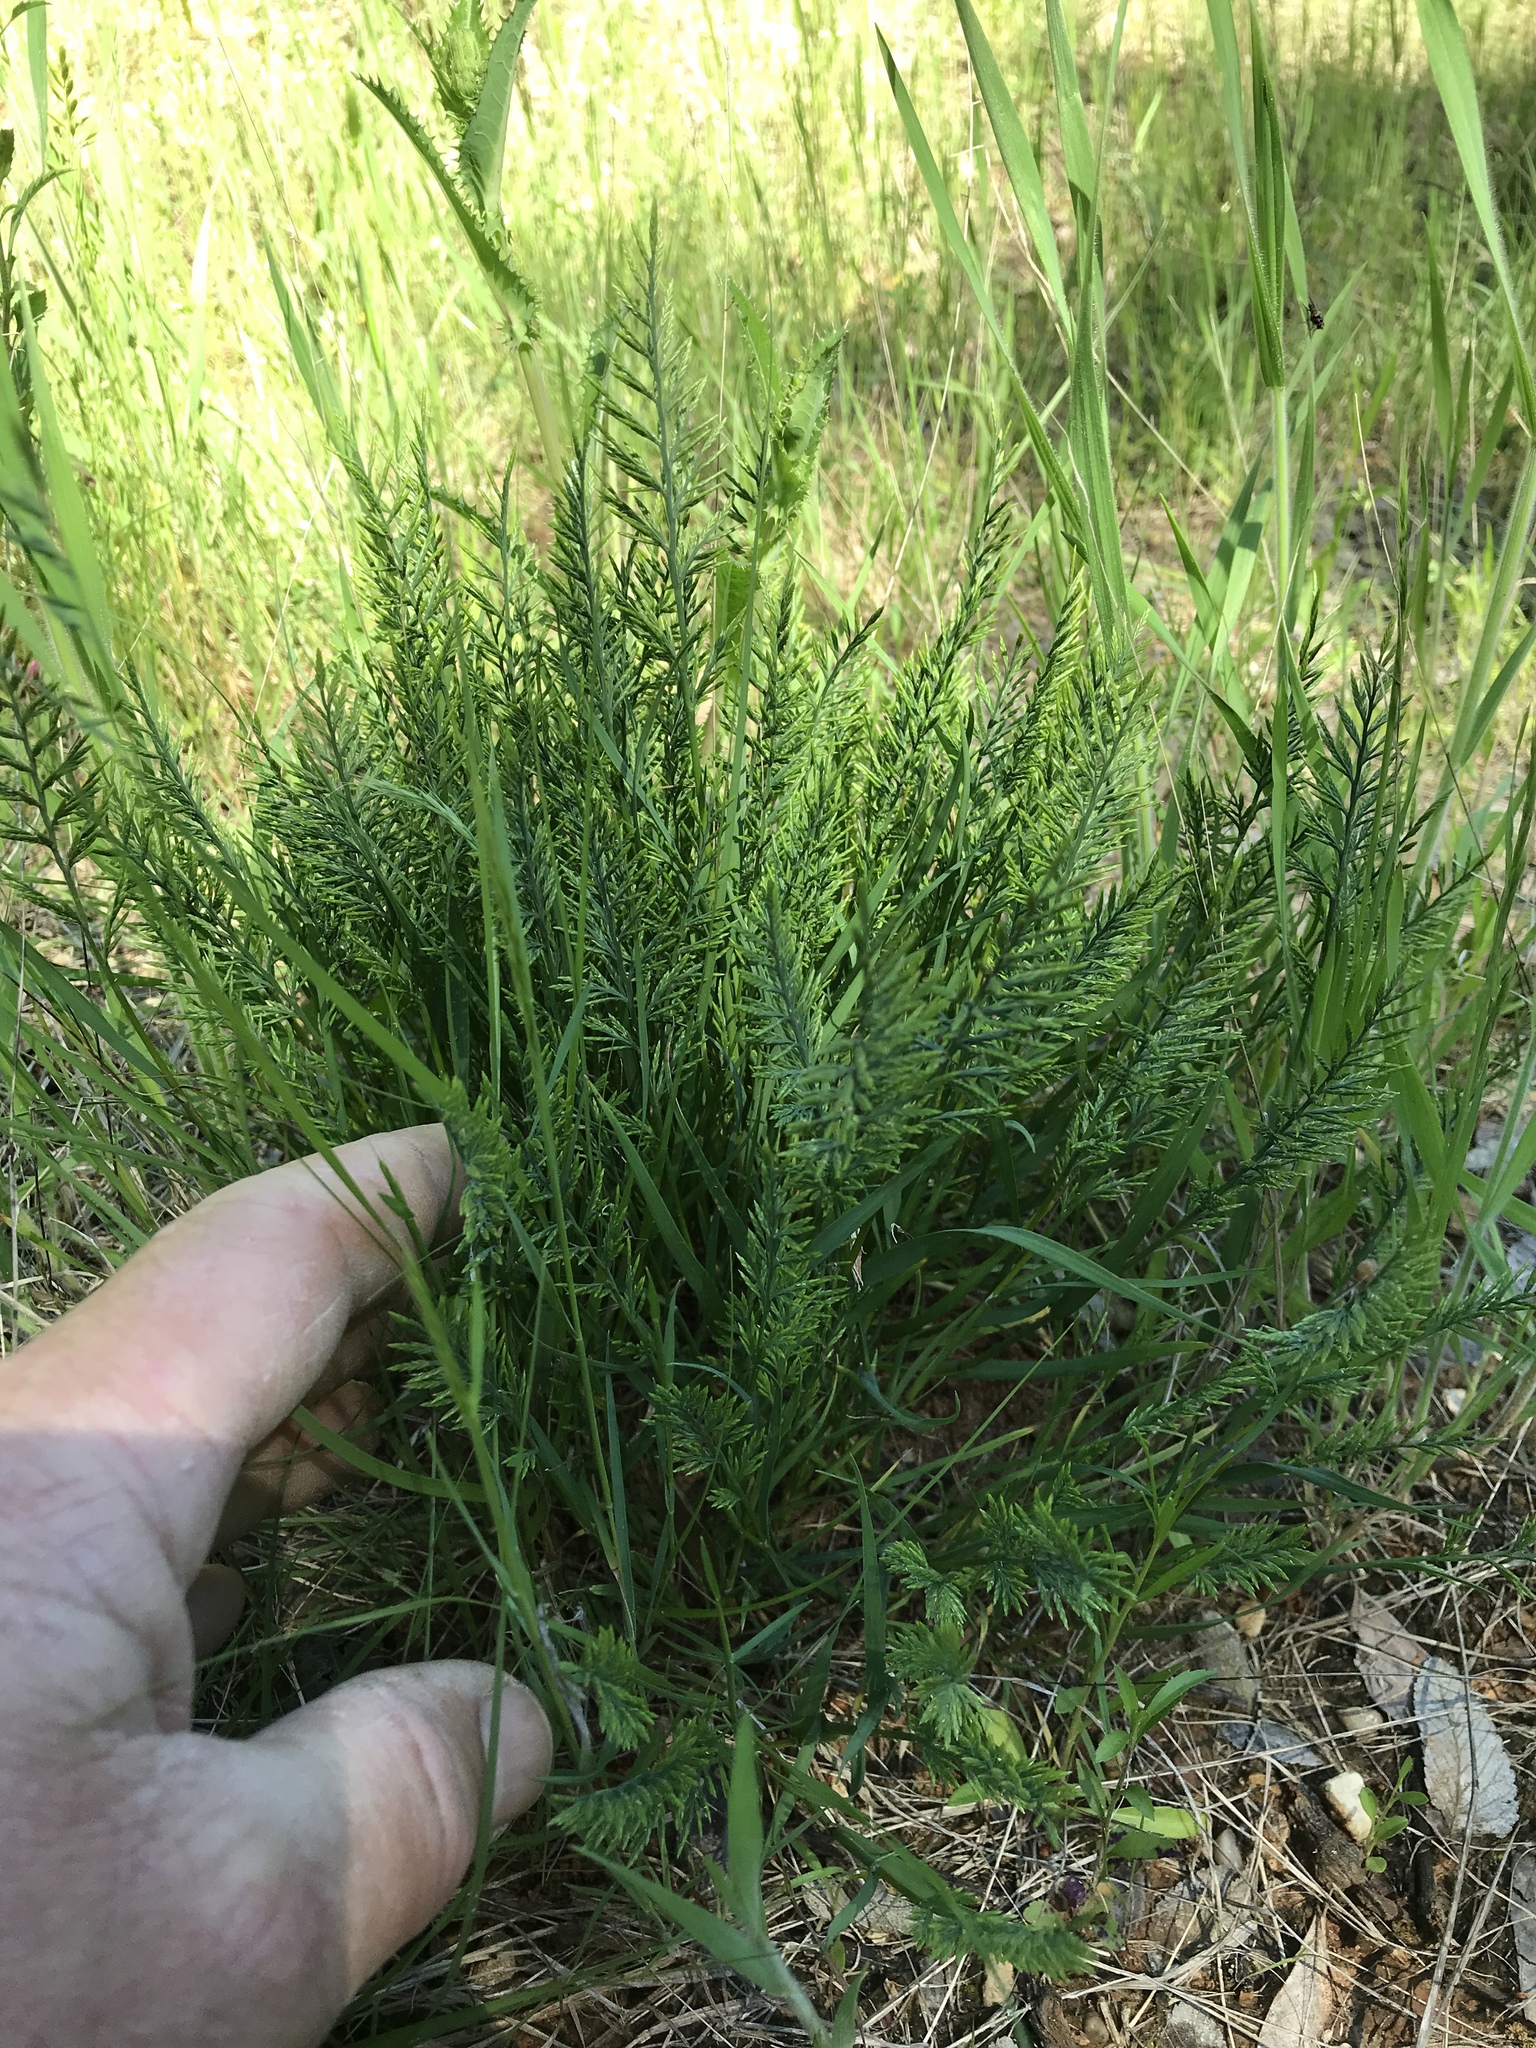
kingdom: Plantae
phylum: Tracheophyta
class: Liliopsida
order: Poales
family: Poaceae
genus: Catapodium
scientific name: Catapodium rigidum
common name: Fern-grass
